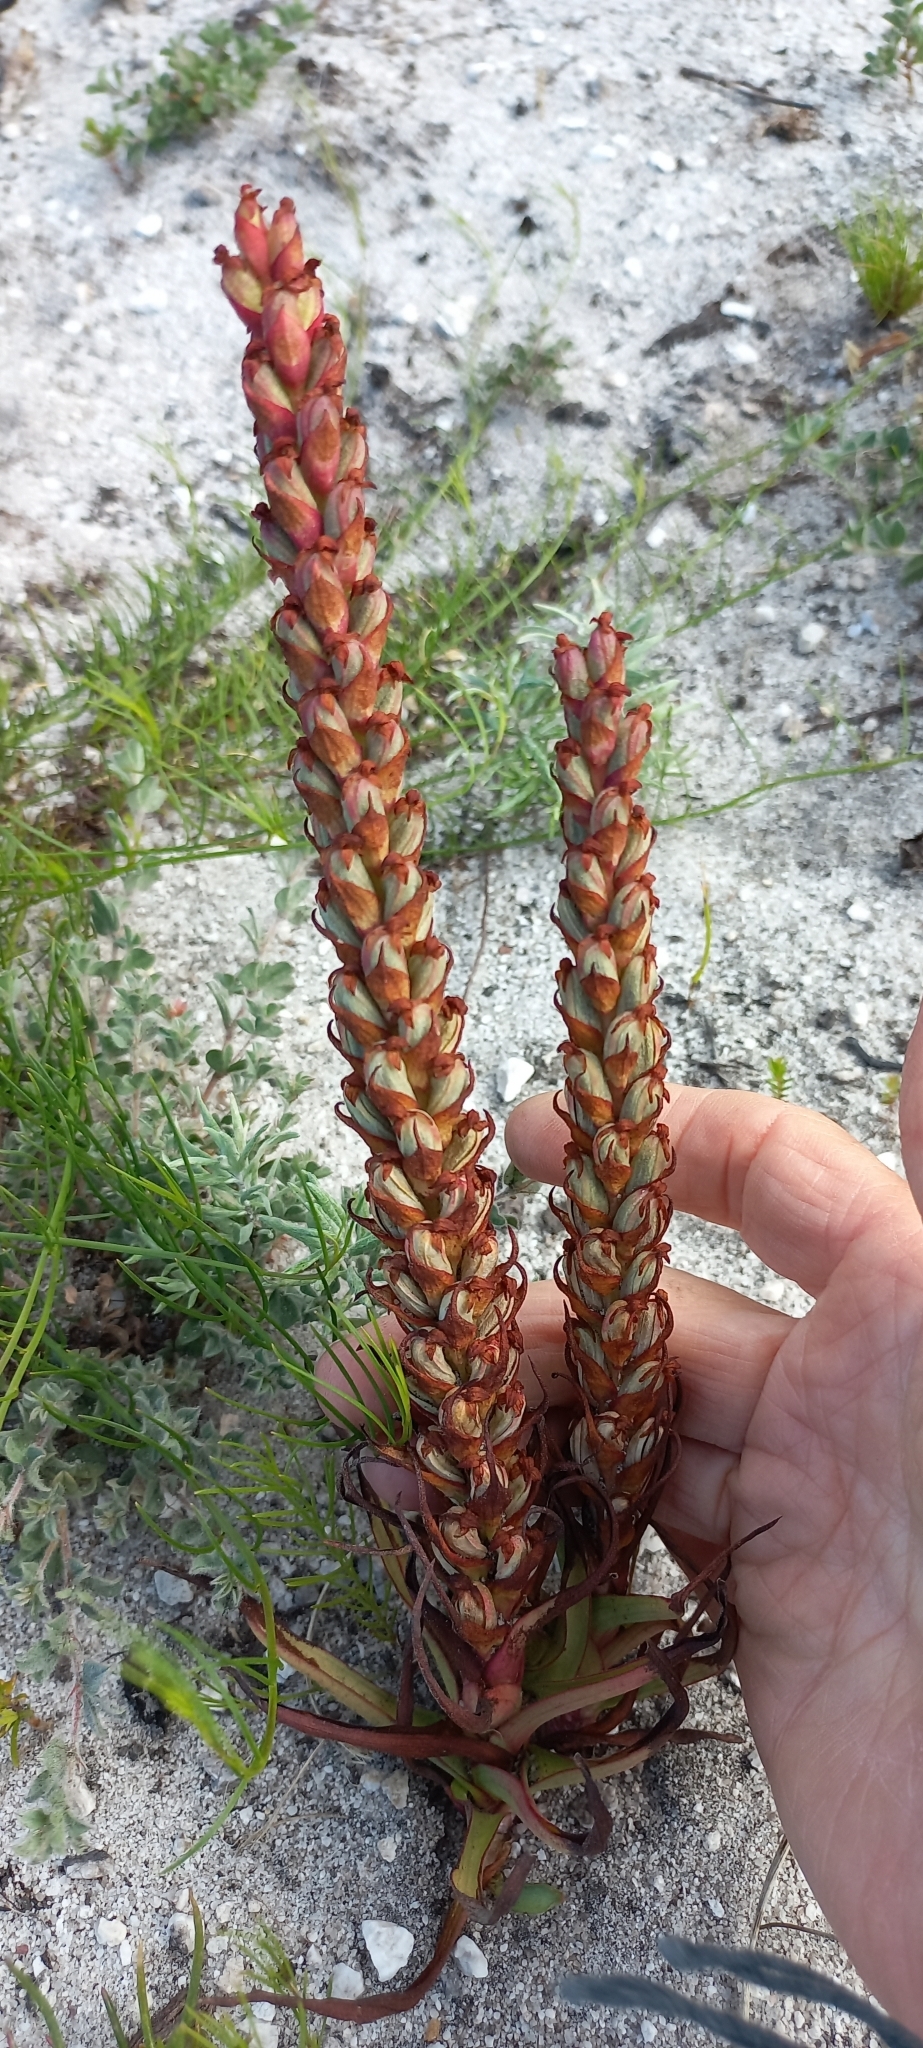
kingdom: Plantae
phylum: Tracheophyta
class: Liliopsida
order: Asparagales
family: Orchidaceae
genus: Disa
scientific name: Disa bracteata
